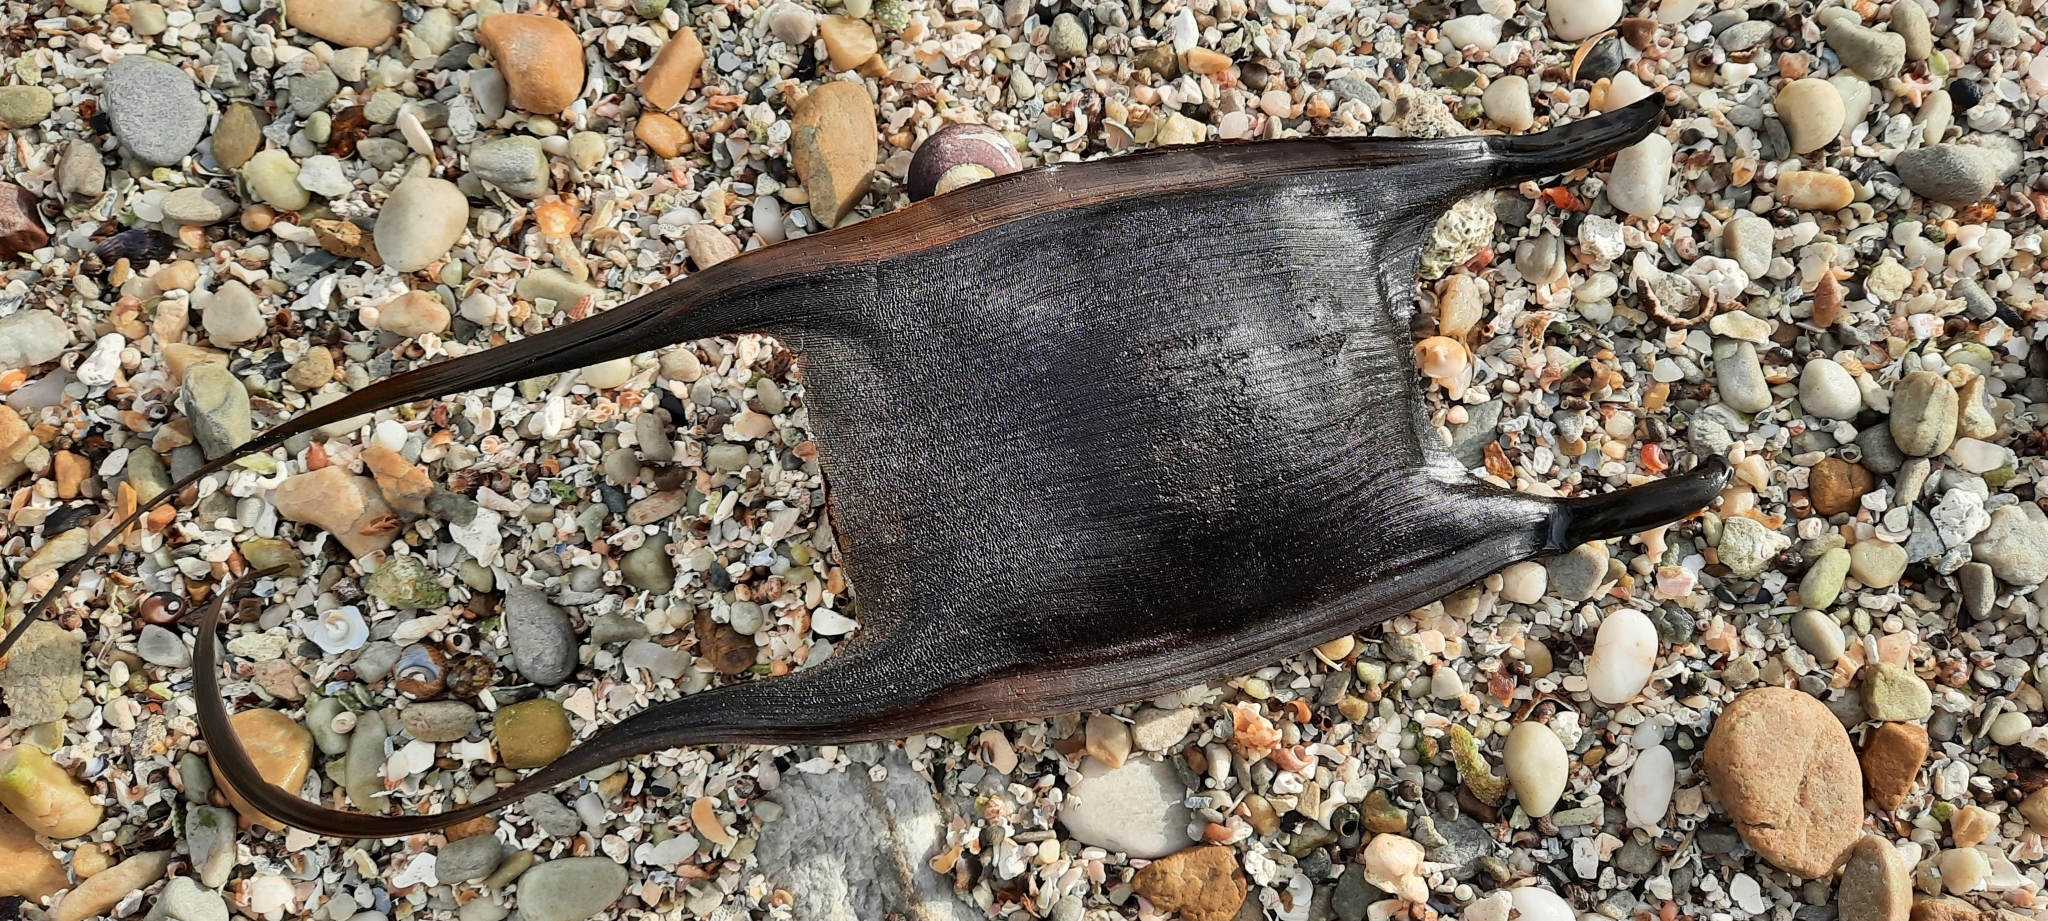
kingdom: Animalia
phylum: Chordata
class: Elasmobranchii
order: Rajiformes
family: Rajidae
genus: Rostroraja
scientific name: Rostroraja alba
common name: White skate
